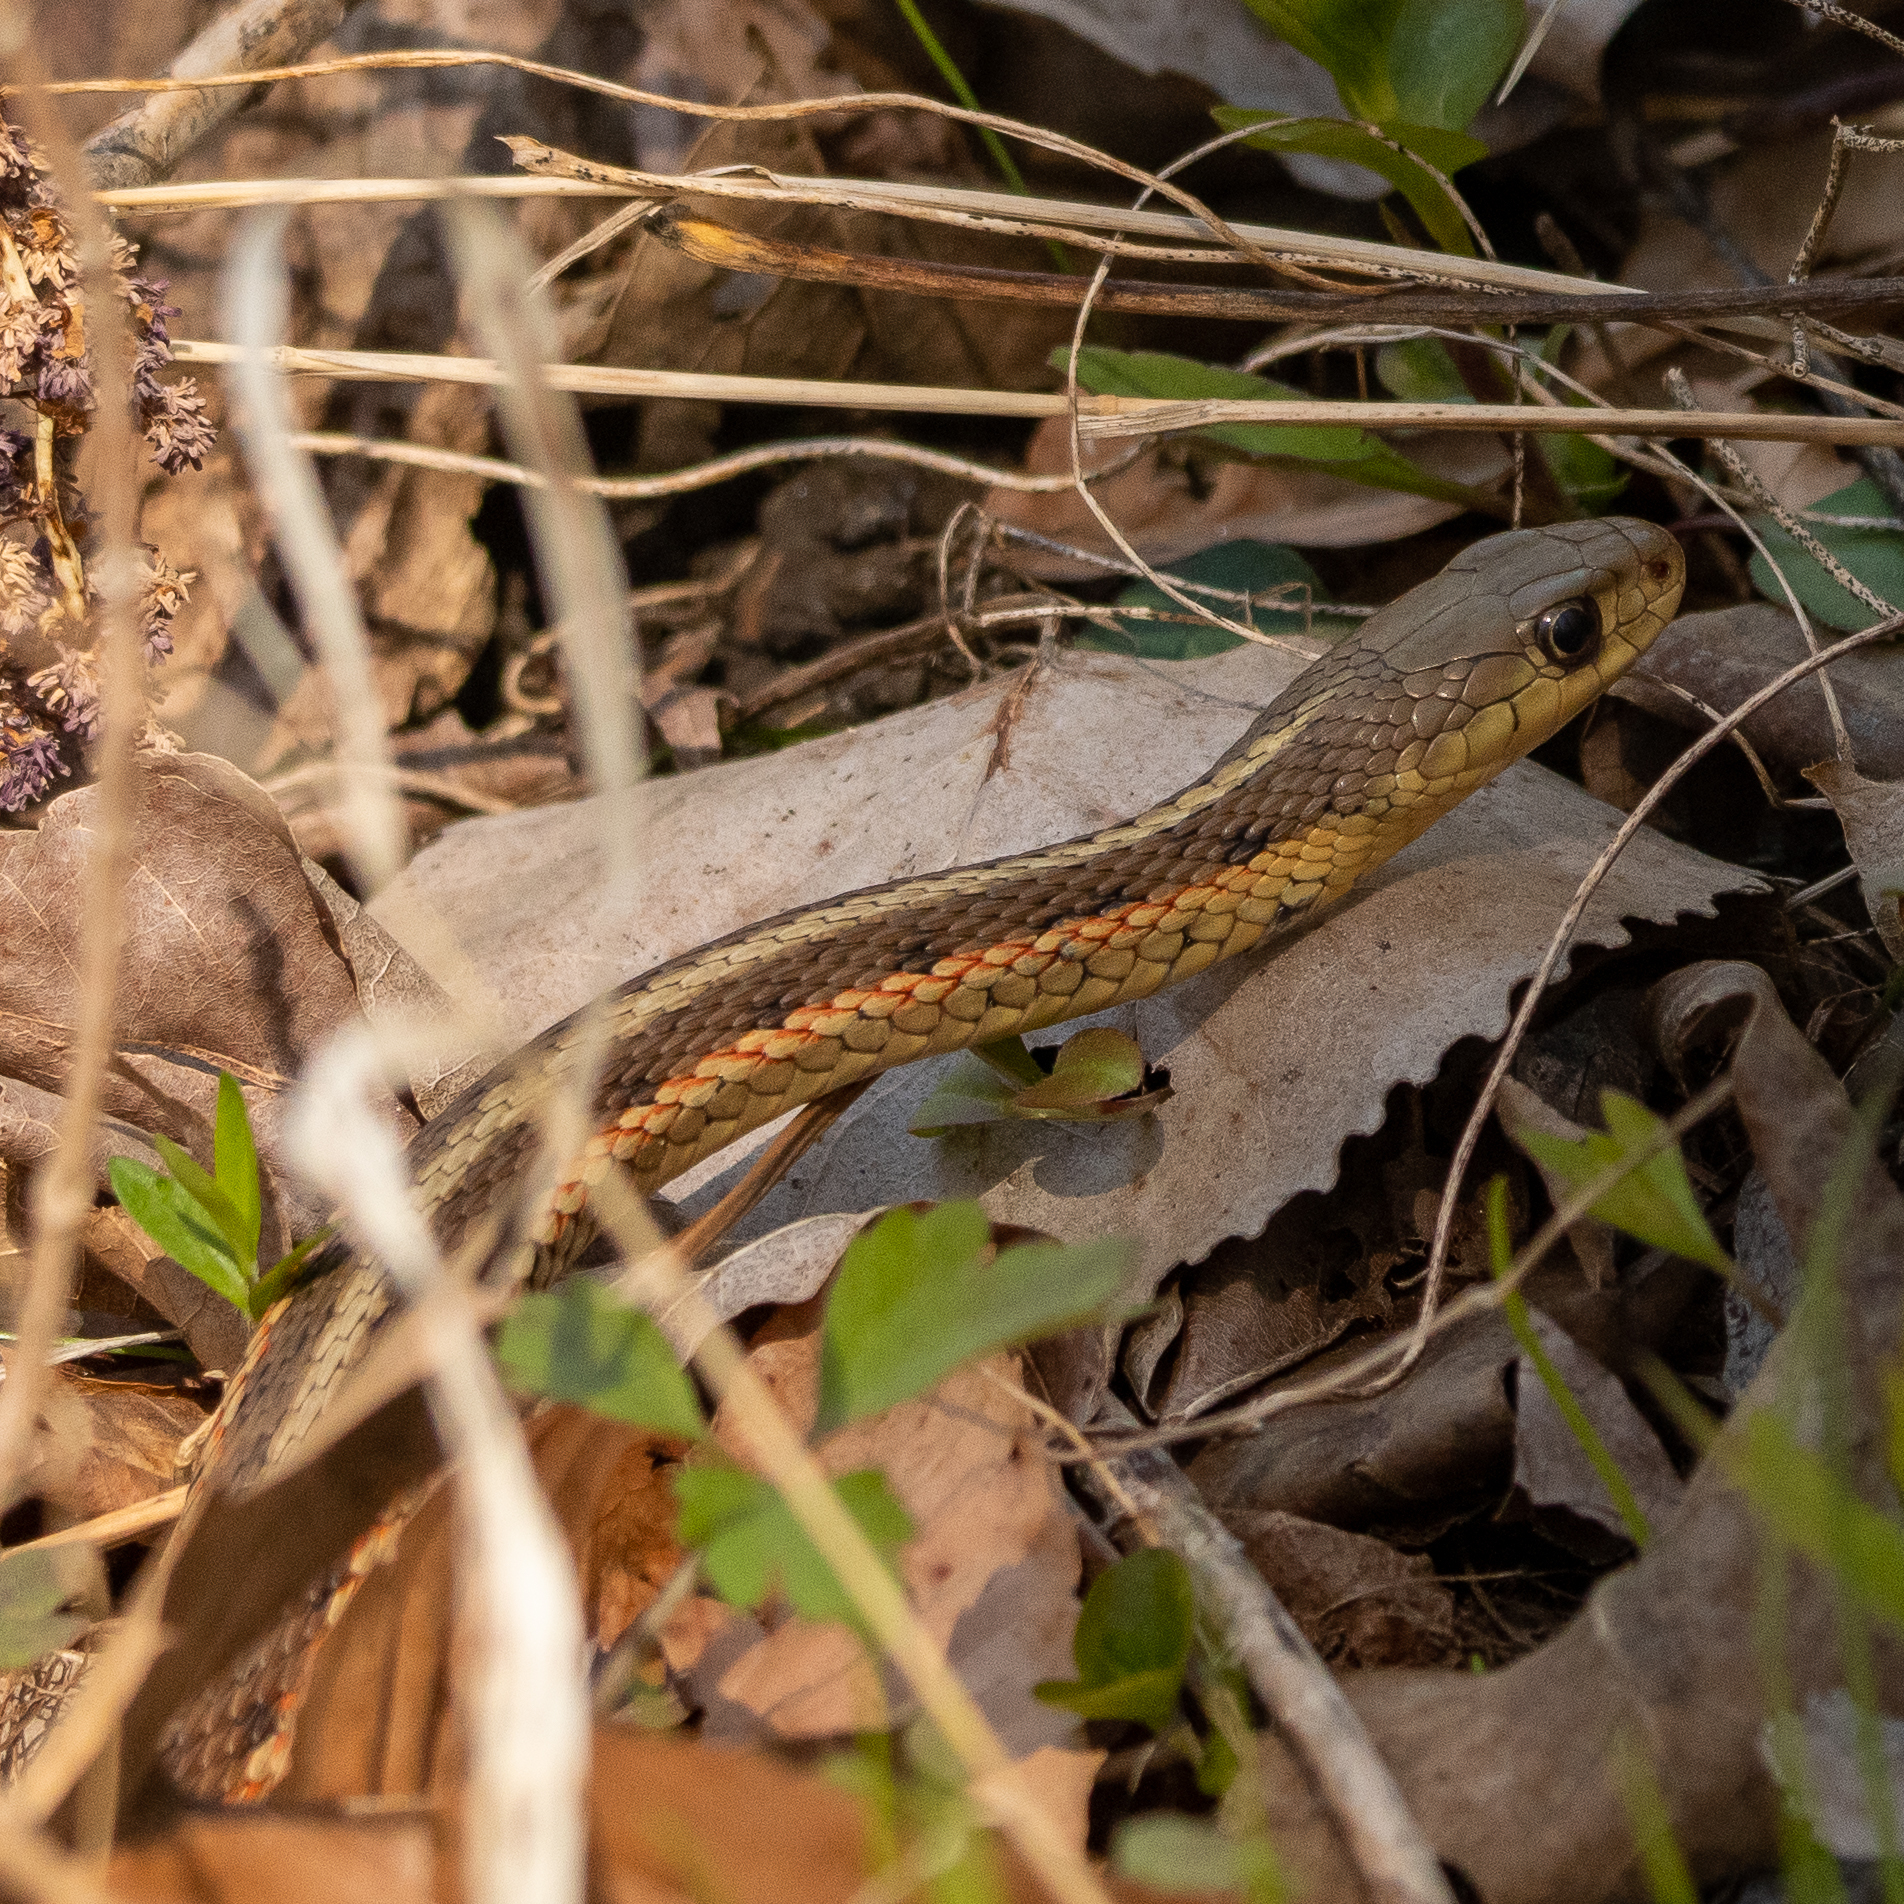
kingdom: Animalia
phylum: Chordata
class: Squamata
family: Colubridae
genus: Thamnophis
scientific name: Thamnophis sirtalis
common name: Common garter snake
